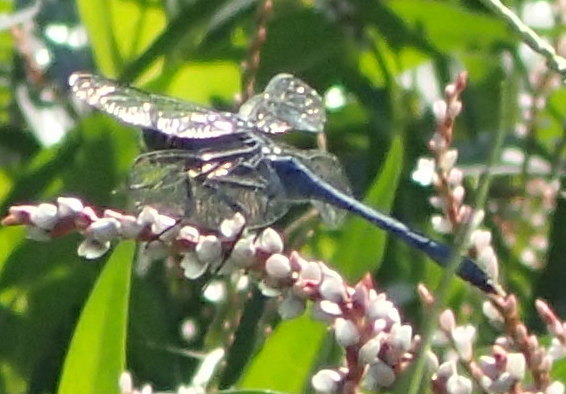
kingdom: Animalia
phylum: Arthropoda
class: Insecta
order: Odonata
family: Libellulidae
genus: Erythemis
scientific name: Erythemis simplicicollis
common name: Eastern pondhawk
